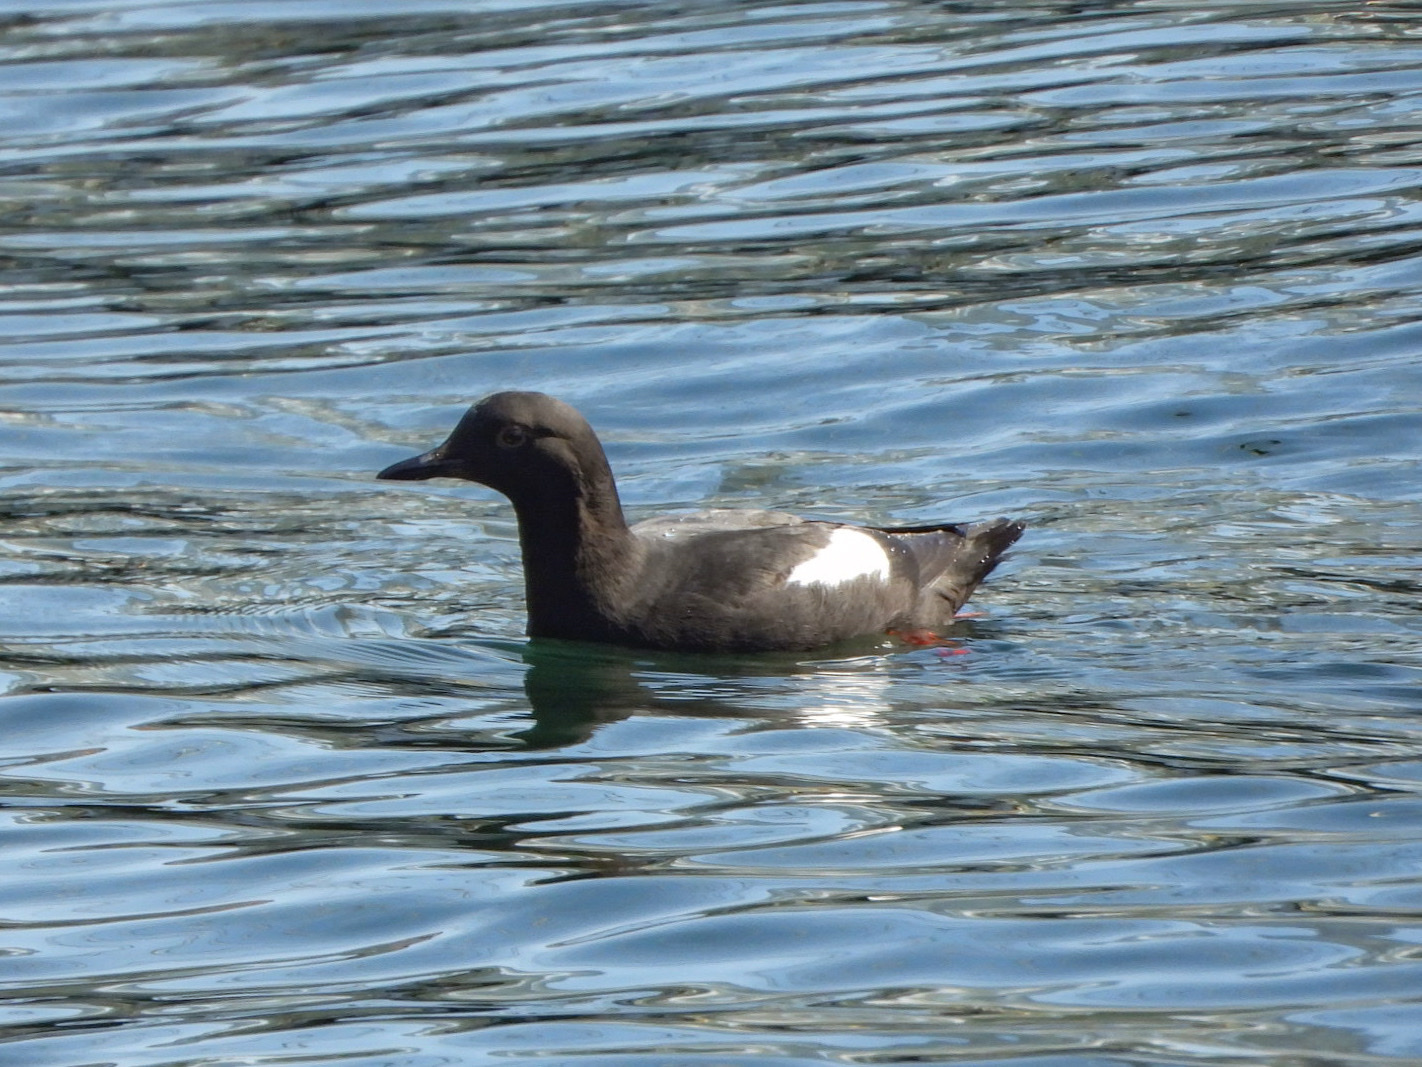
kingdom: Animalia
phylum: Chordata
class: Aves
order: Charadriiformes
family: Alcidae
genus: Cepphus
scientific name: Cepphus columba
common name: Pigeon guillemot
